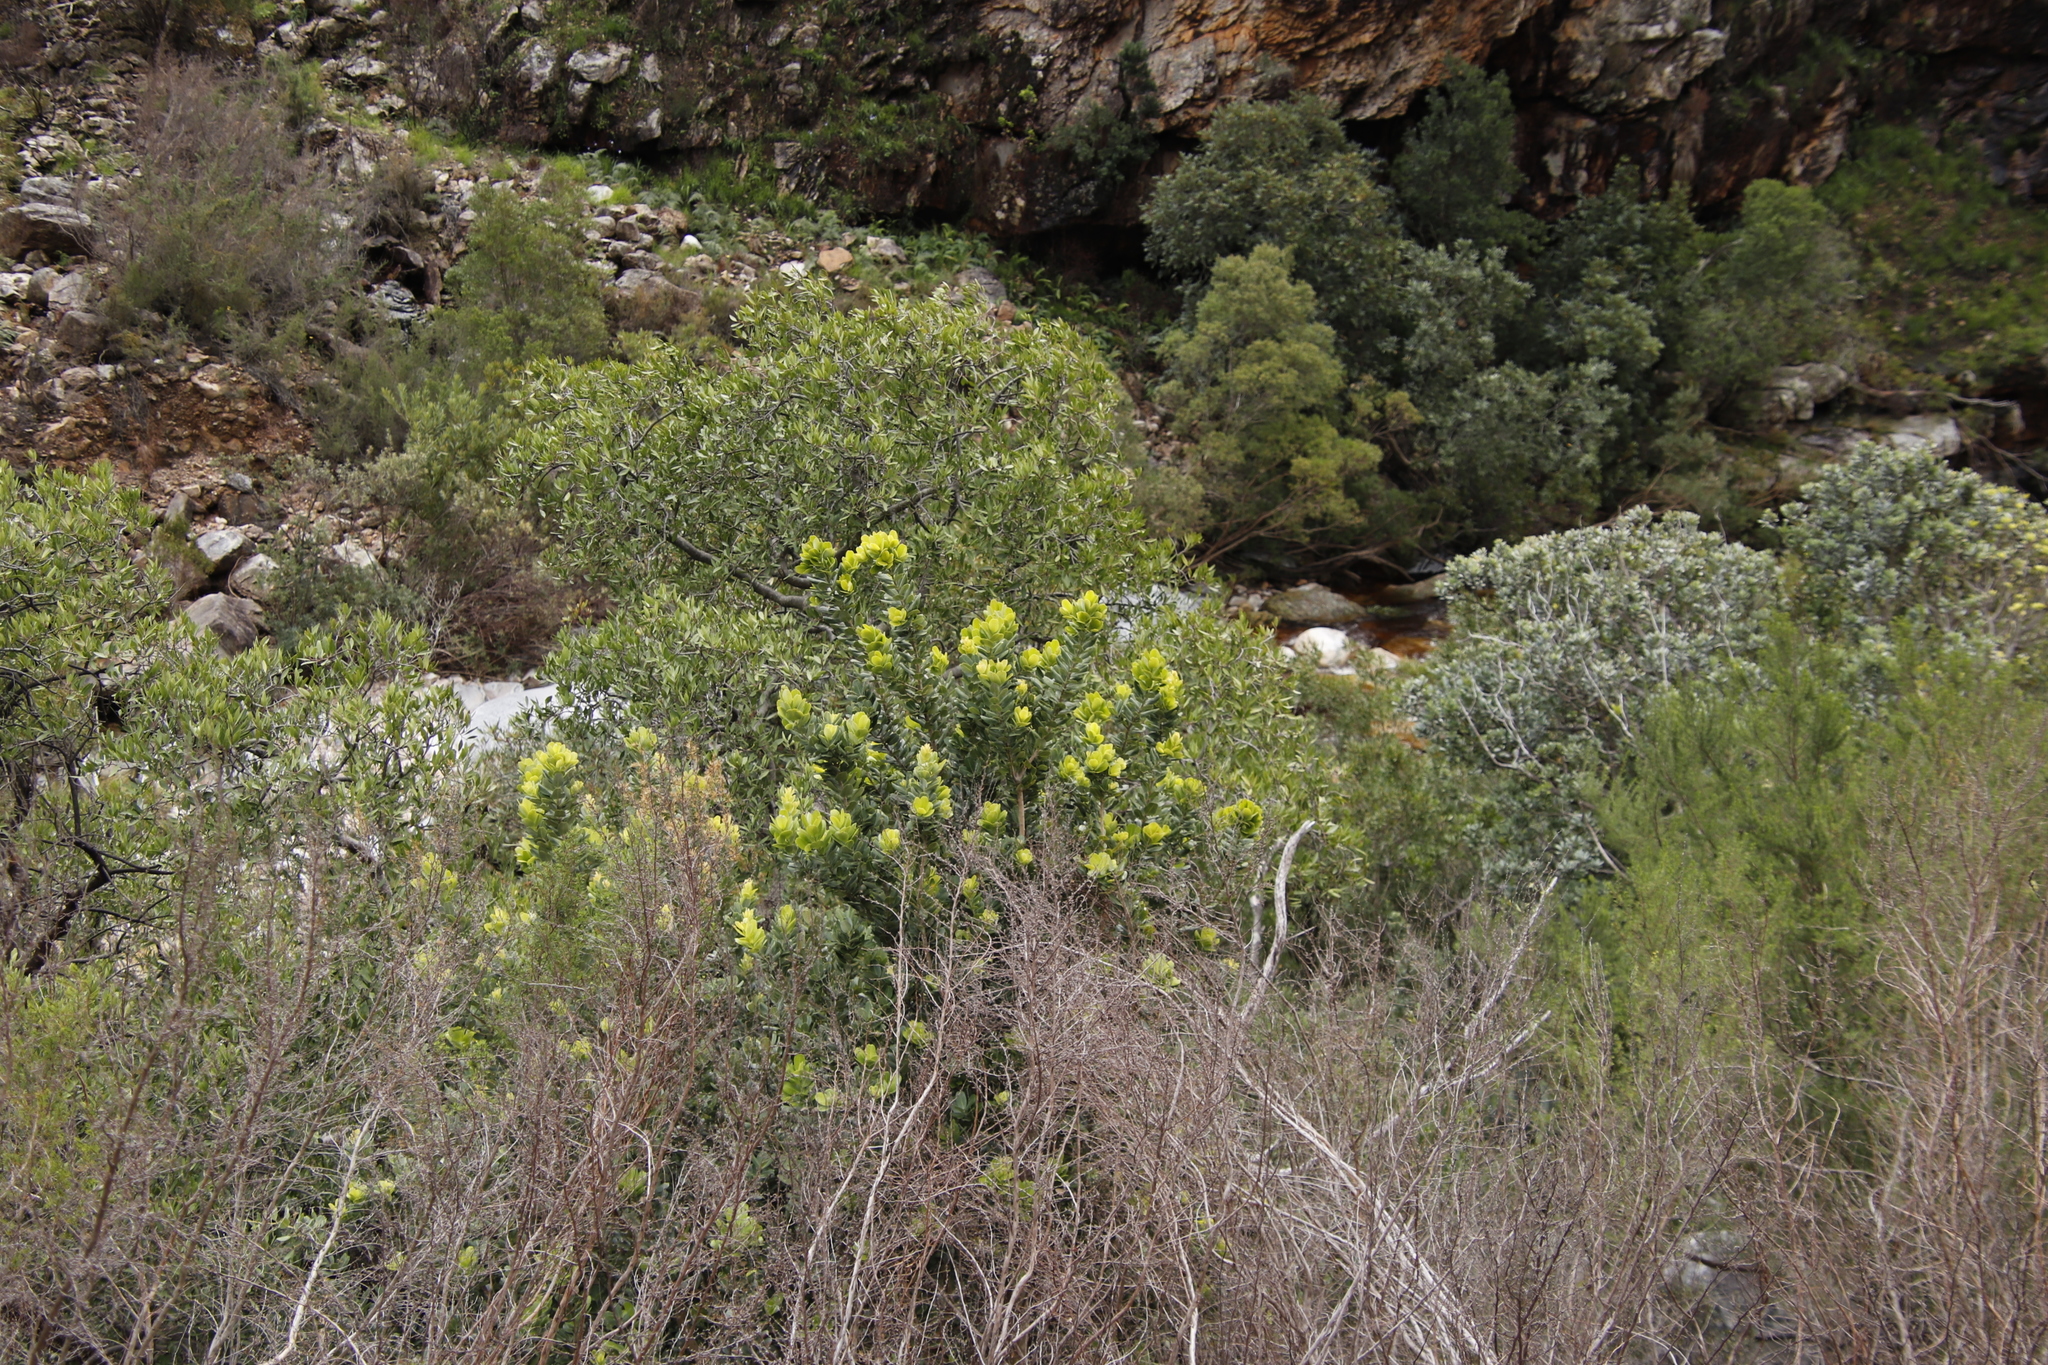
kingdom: Plantae
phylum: Tracheophyta
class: Magnoliopsida
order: Sapindales
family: Anacardiaceae
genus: Heeria
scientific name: Heeria argentea
